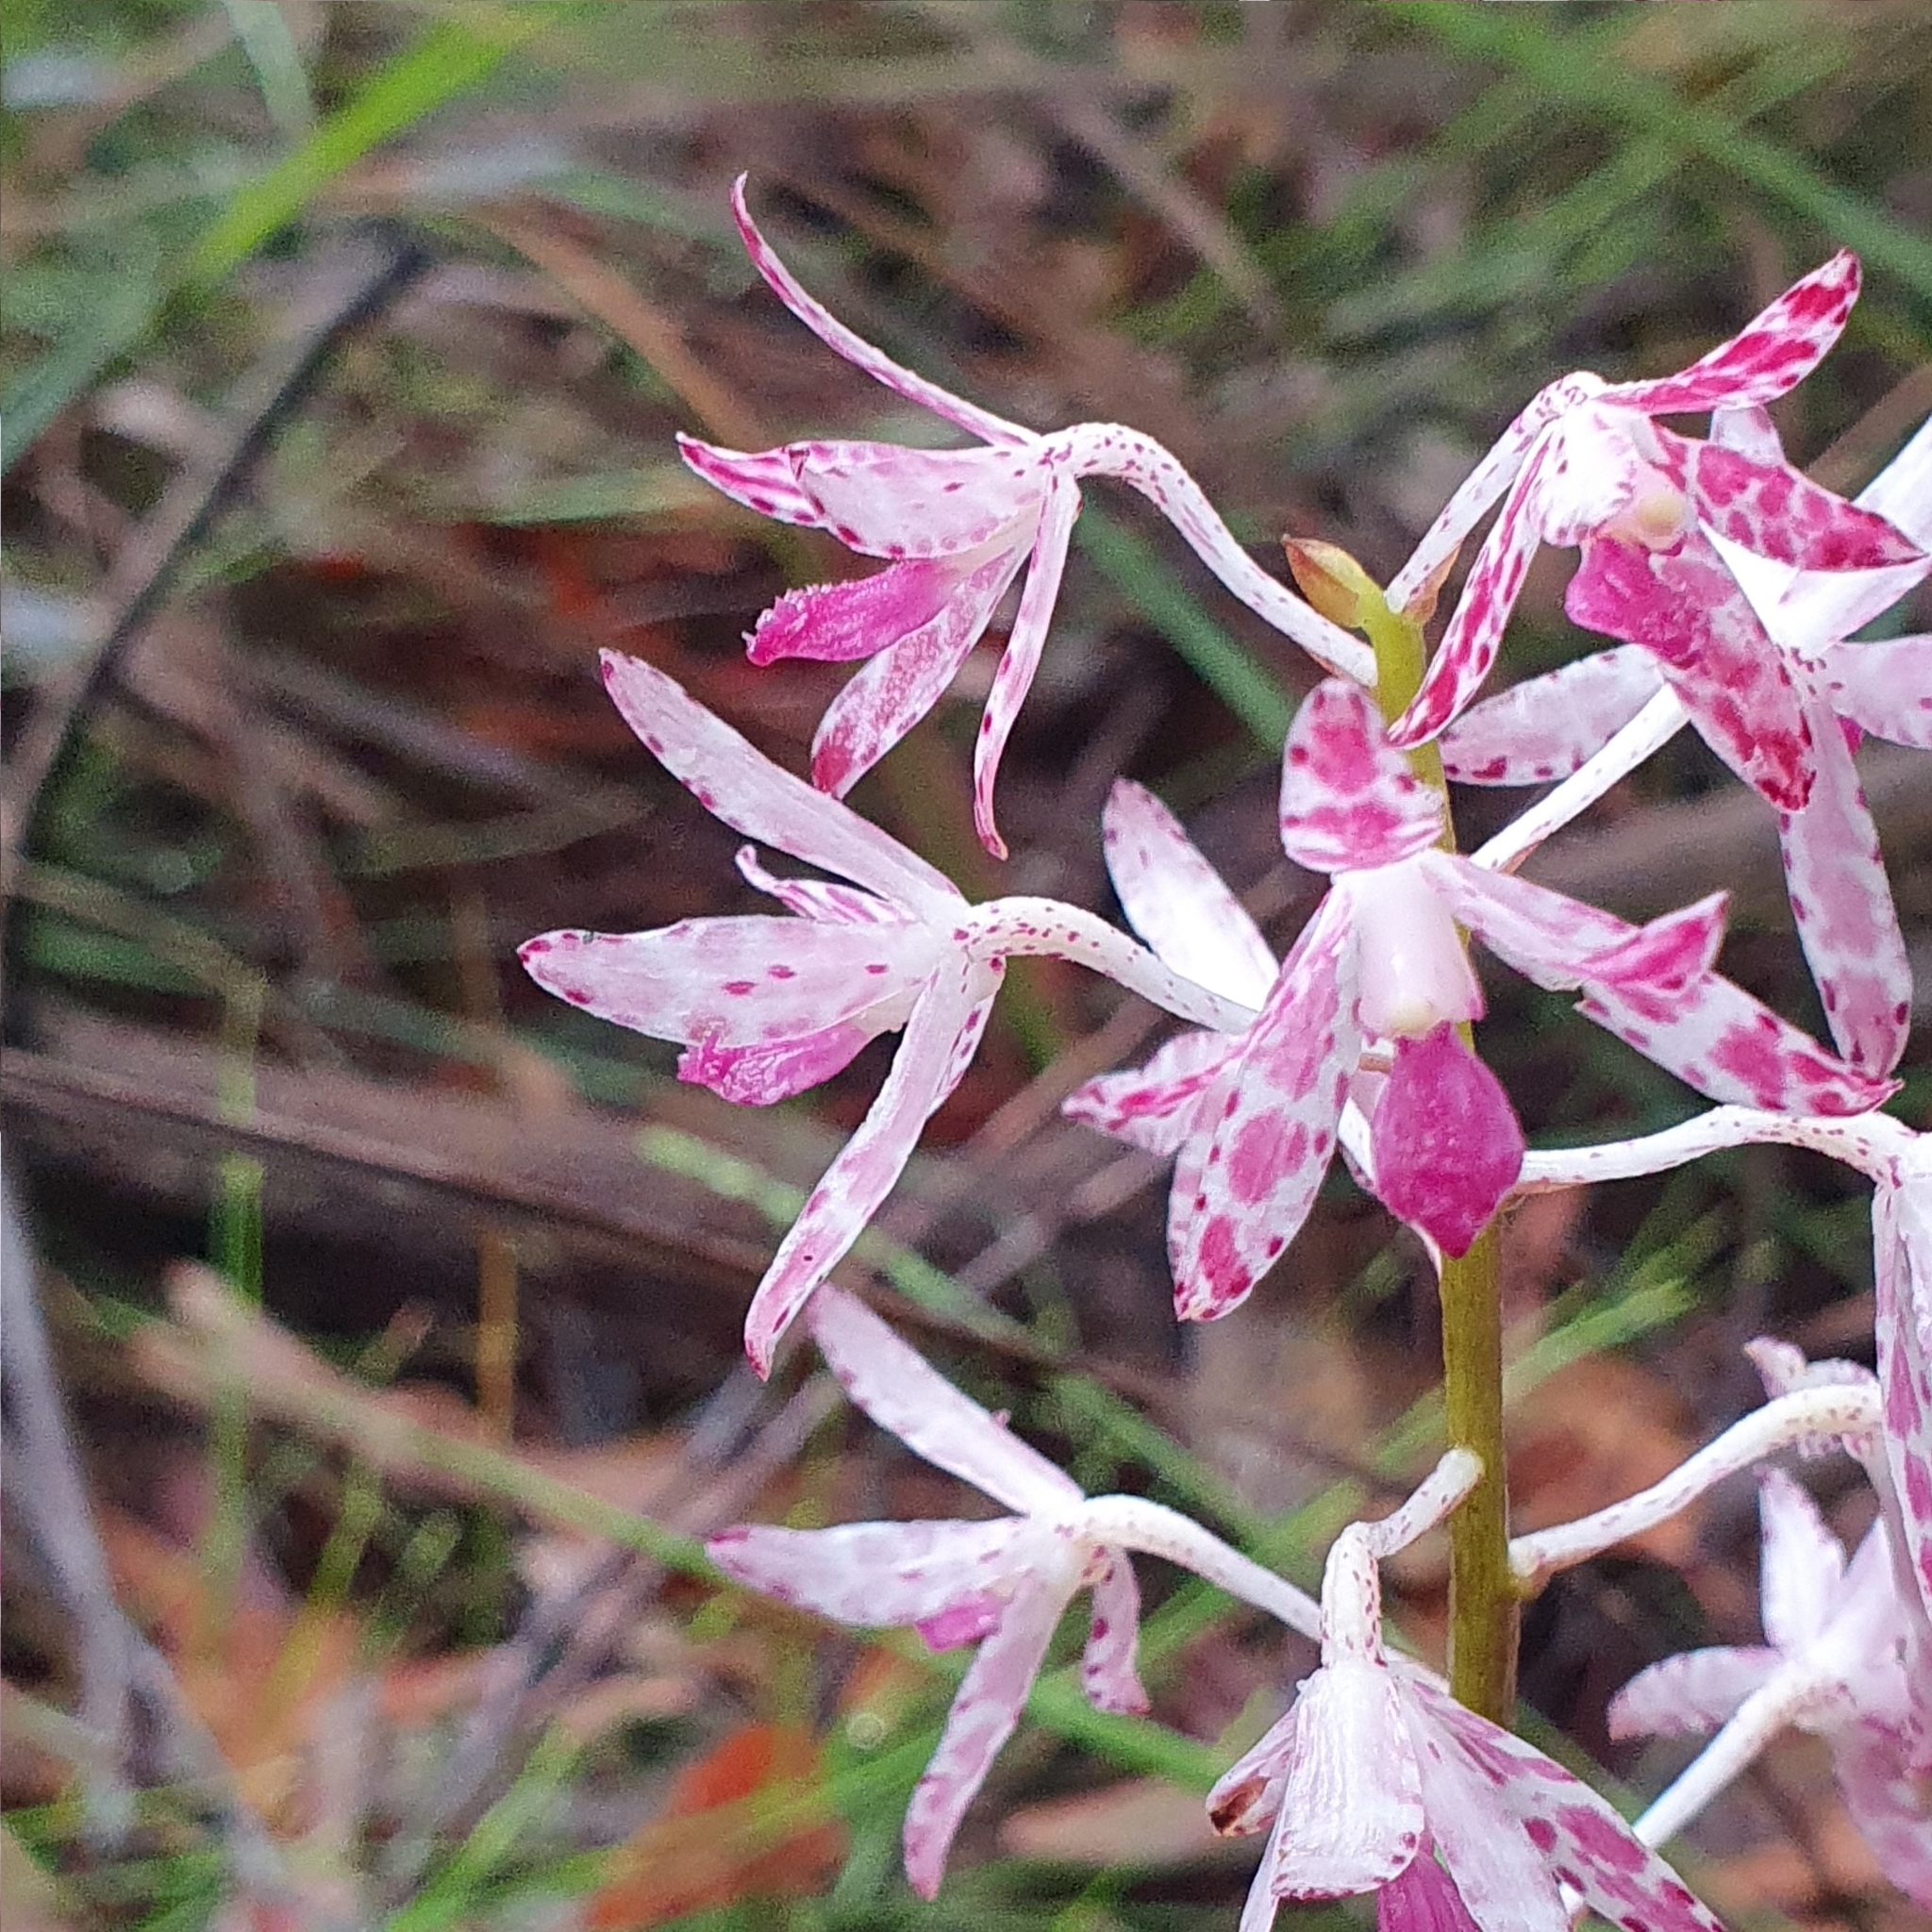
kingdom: Plantae
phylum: Tracheophyta
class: Liliopsida
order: Asparagales
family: Orchidaceae
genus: Dipodium
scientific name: Dipodium variegatum
